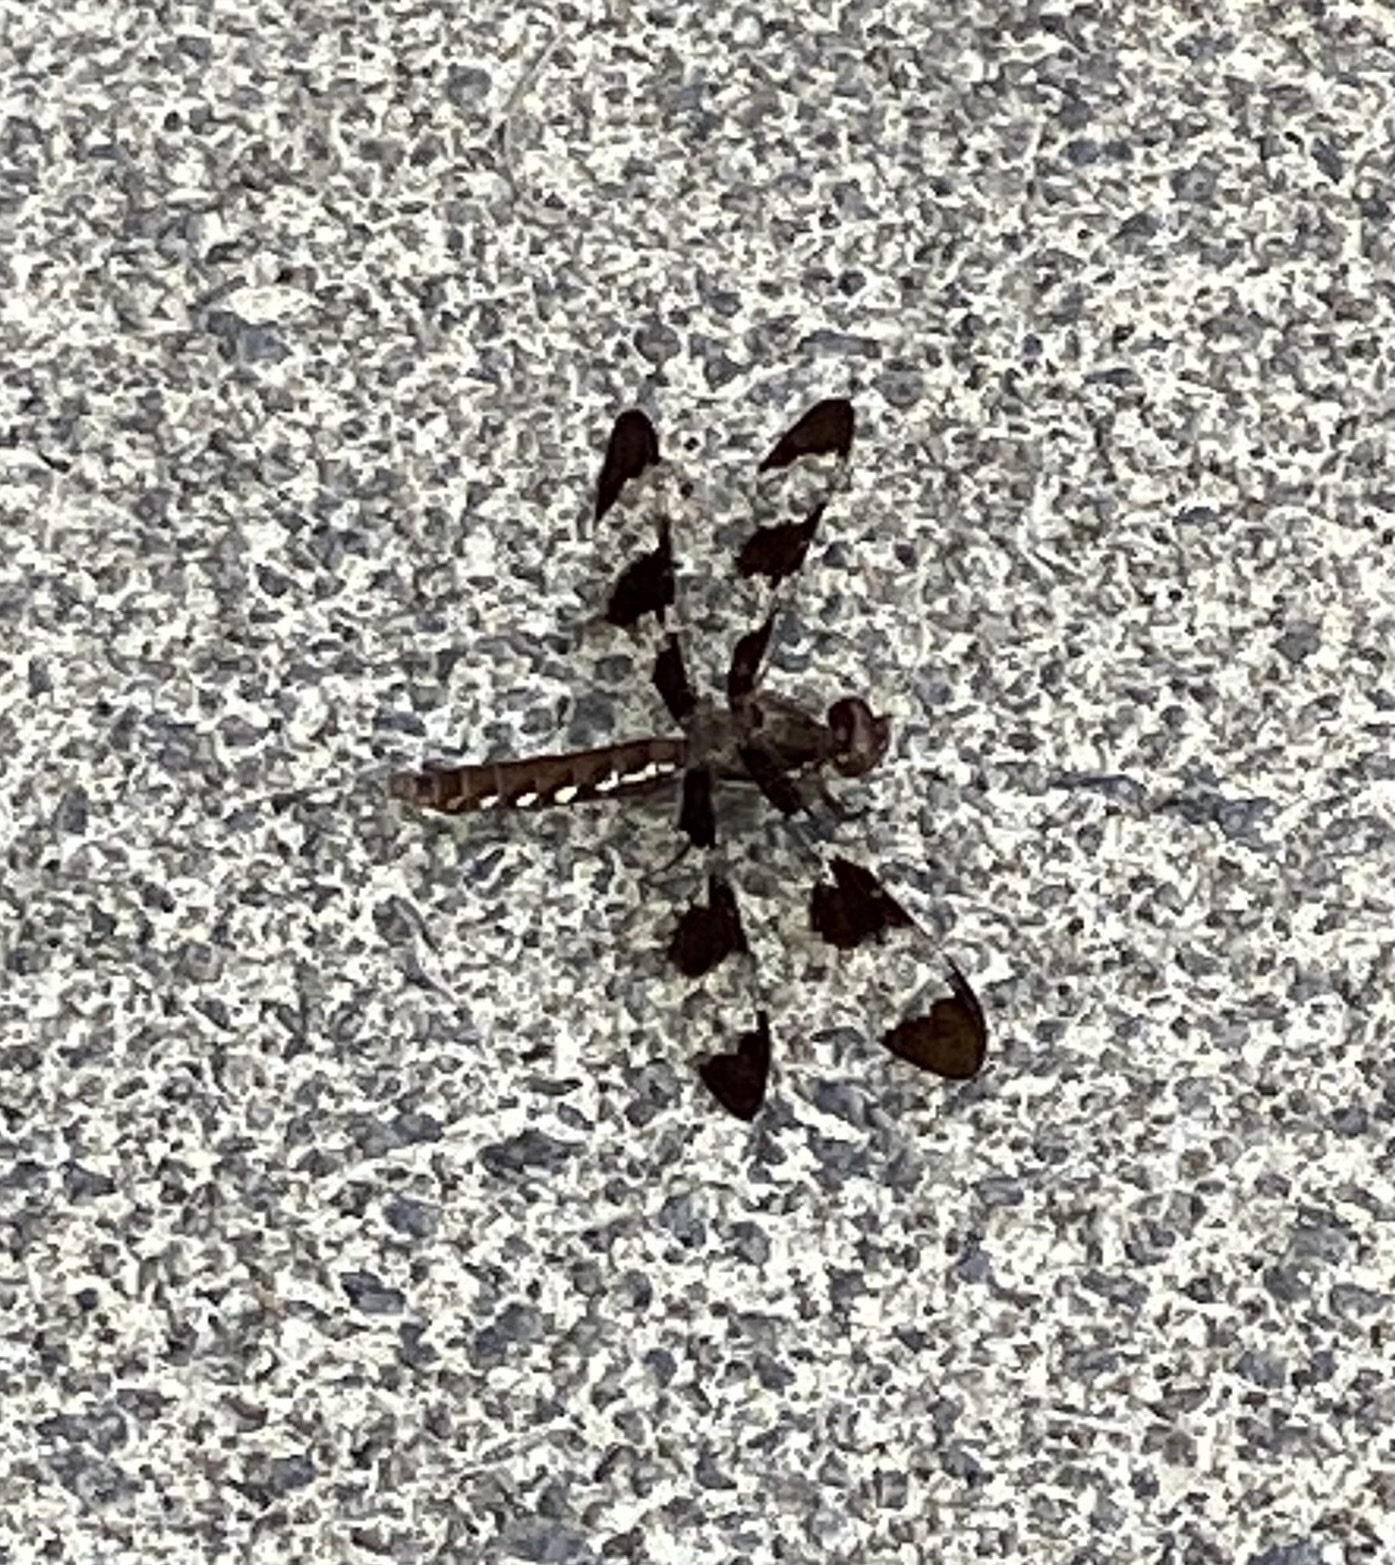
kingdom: Animalia
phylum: Arthropoda
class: Insecta
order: Odonata
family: Libellulidae
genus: Plathemis
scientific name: Plathemis lydia
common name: Common whitetail
